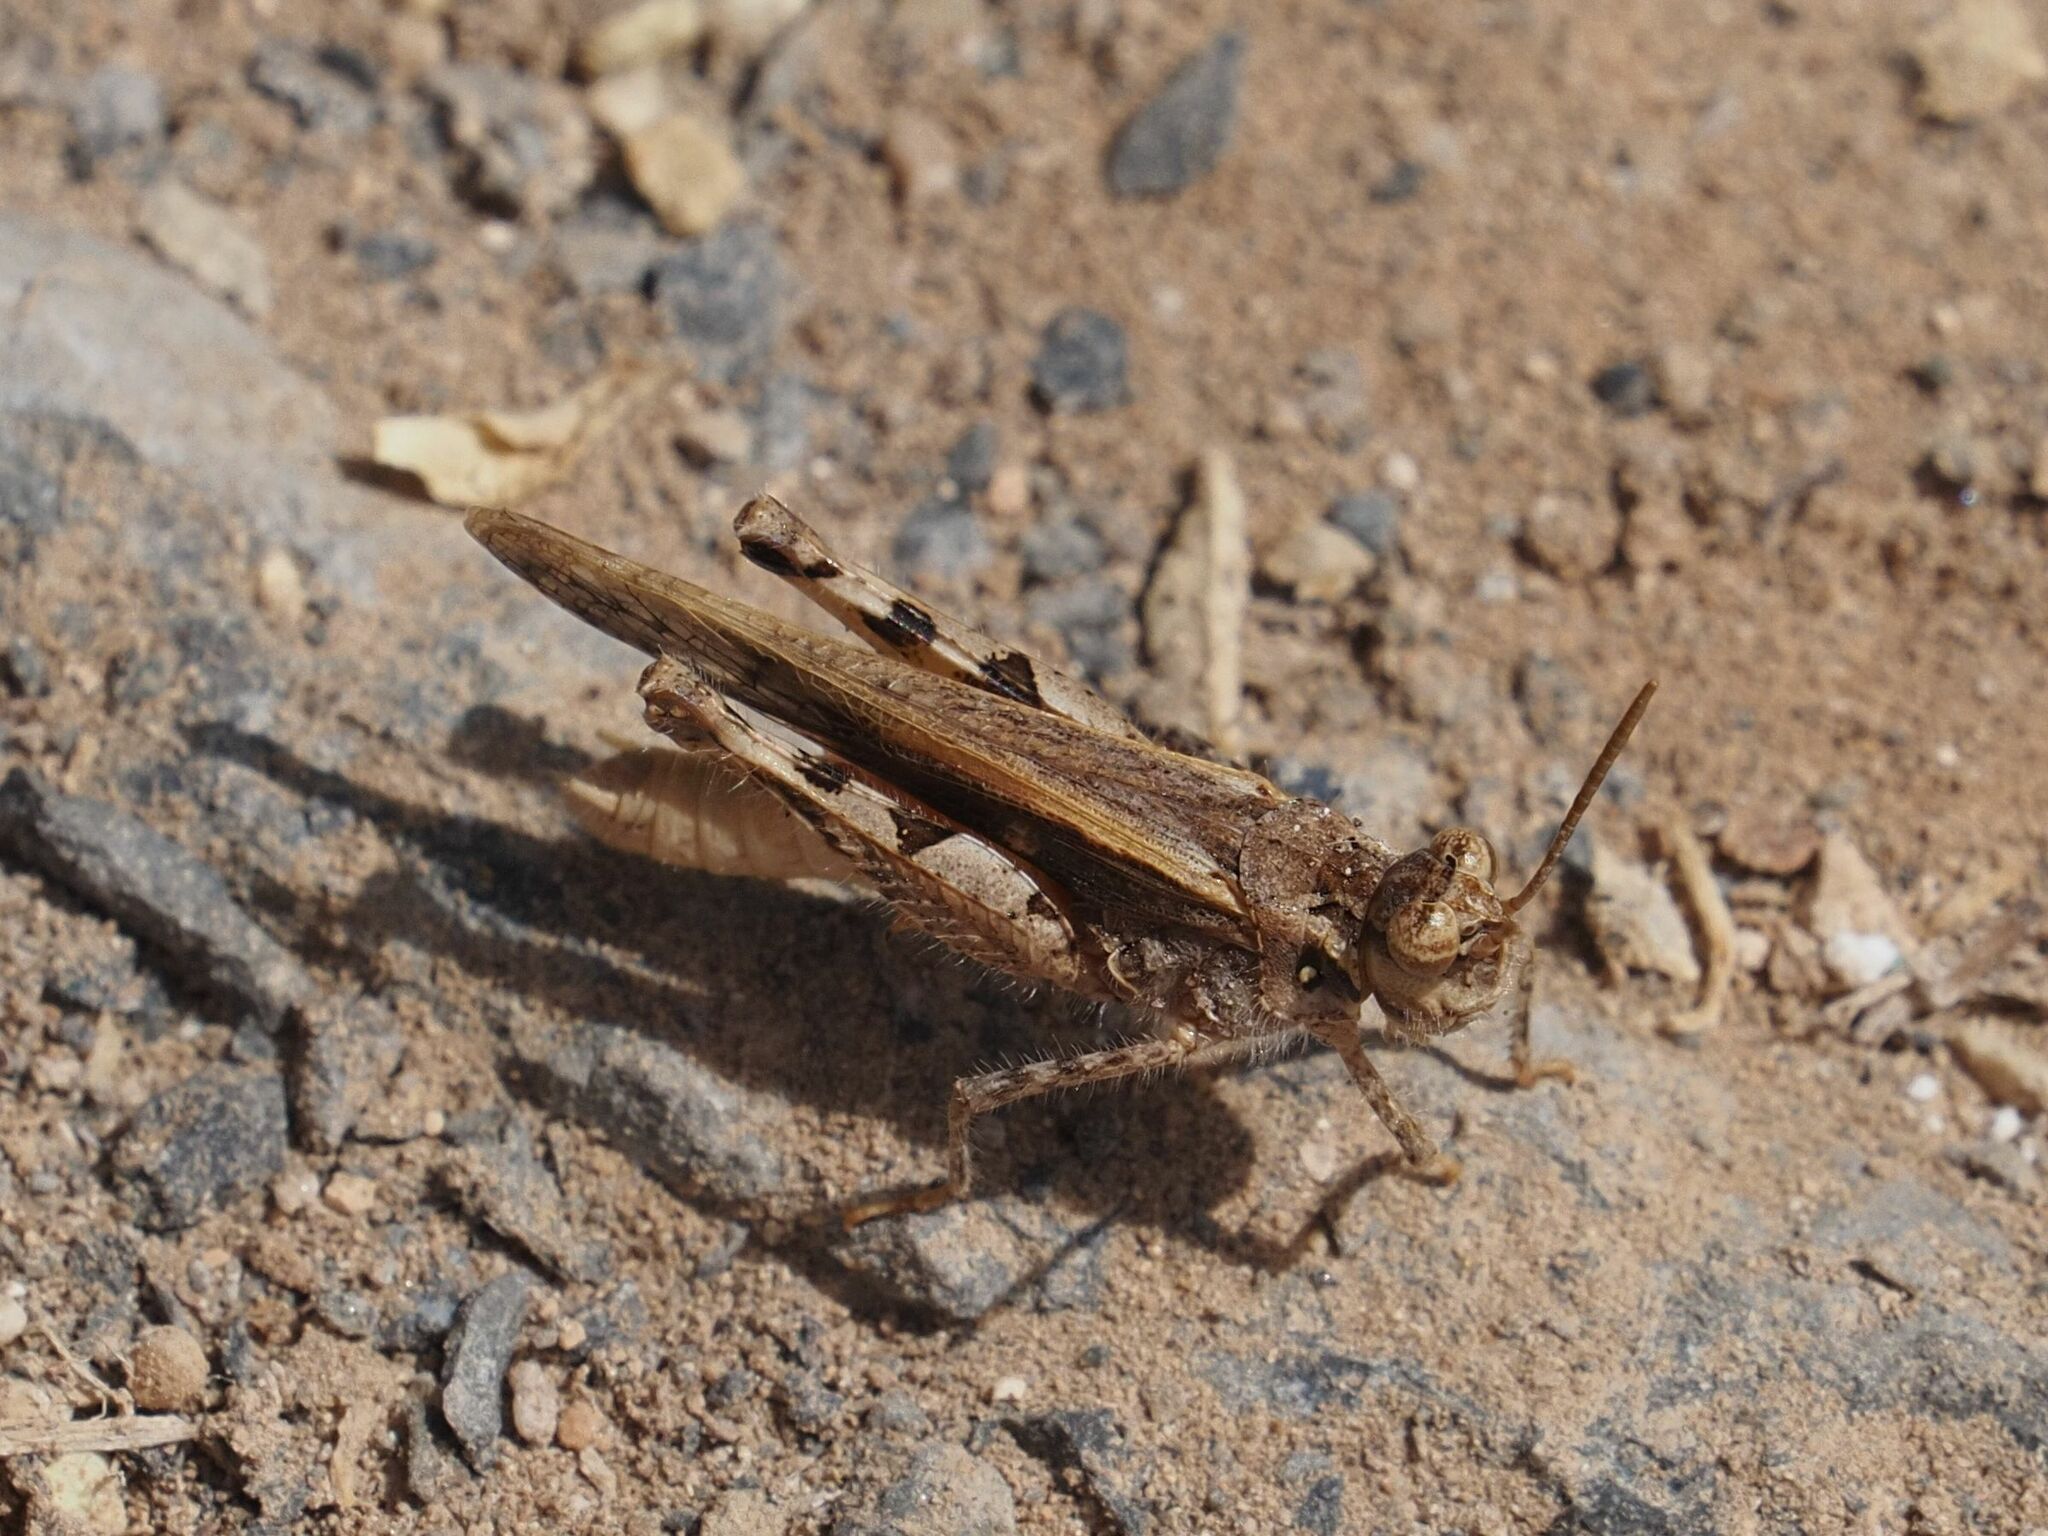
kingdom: Animalia
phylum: Arthropoda
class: Insecta
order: Orthoptera
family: Acrididae
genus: Acrotylus
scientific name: Acrotylus insubricus
